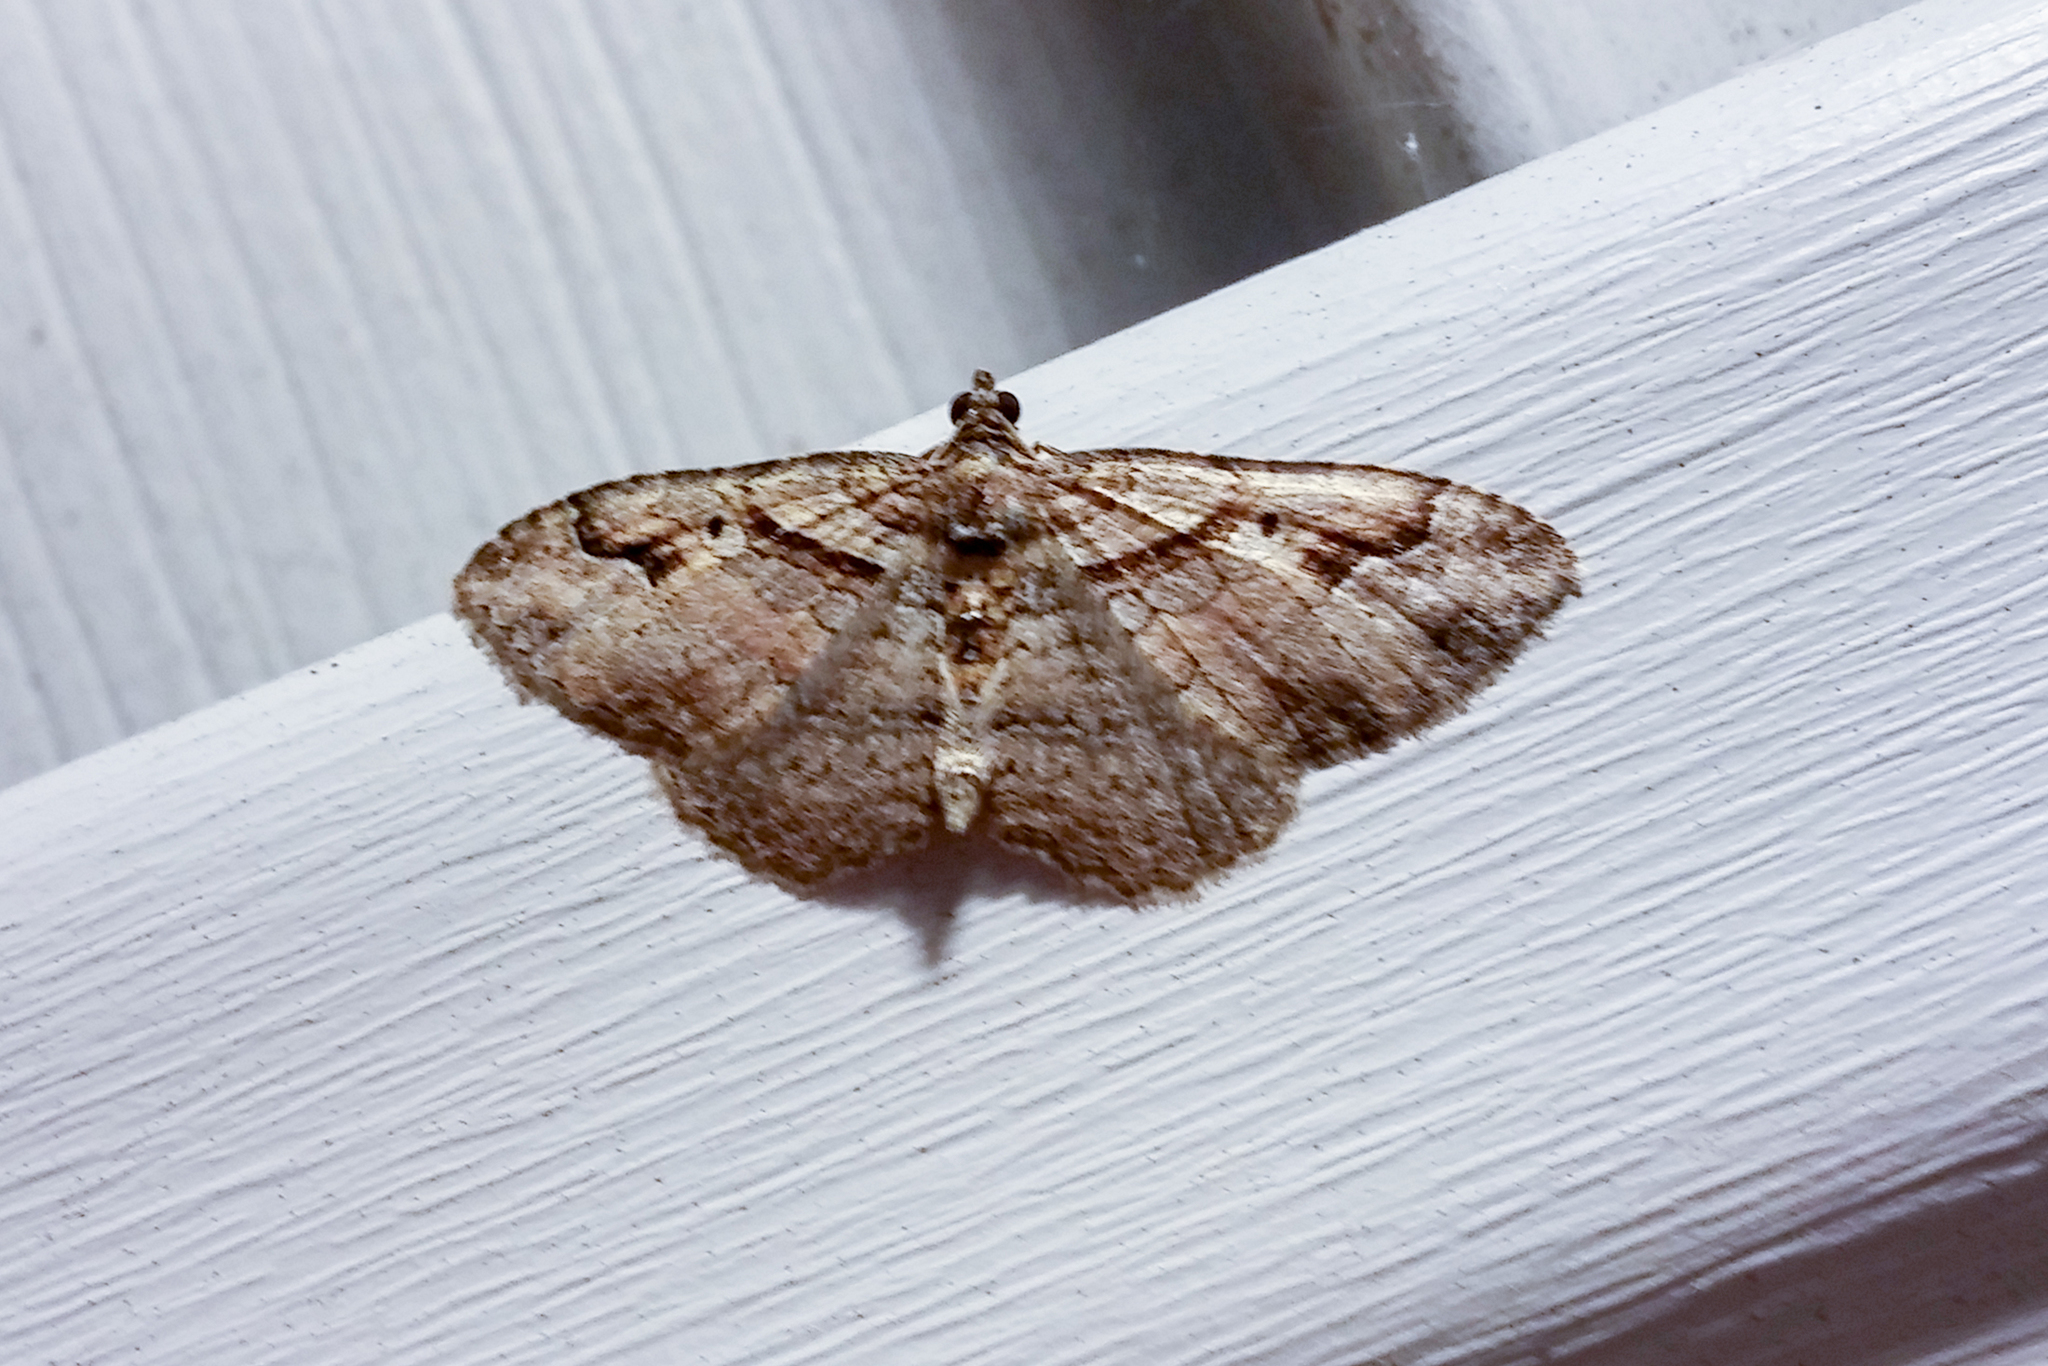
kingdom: Animalia
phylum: Arthropoda
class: Insecta
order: Lepidoptera
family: Geometridae
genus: Costaconvexa
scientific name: Costaconvexa centrostrigaria
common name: Bent-line carpet
